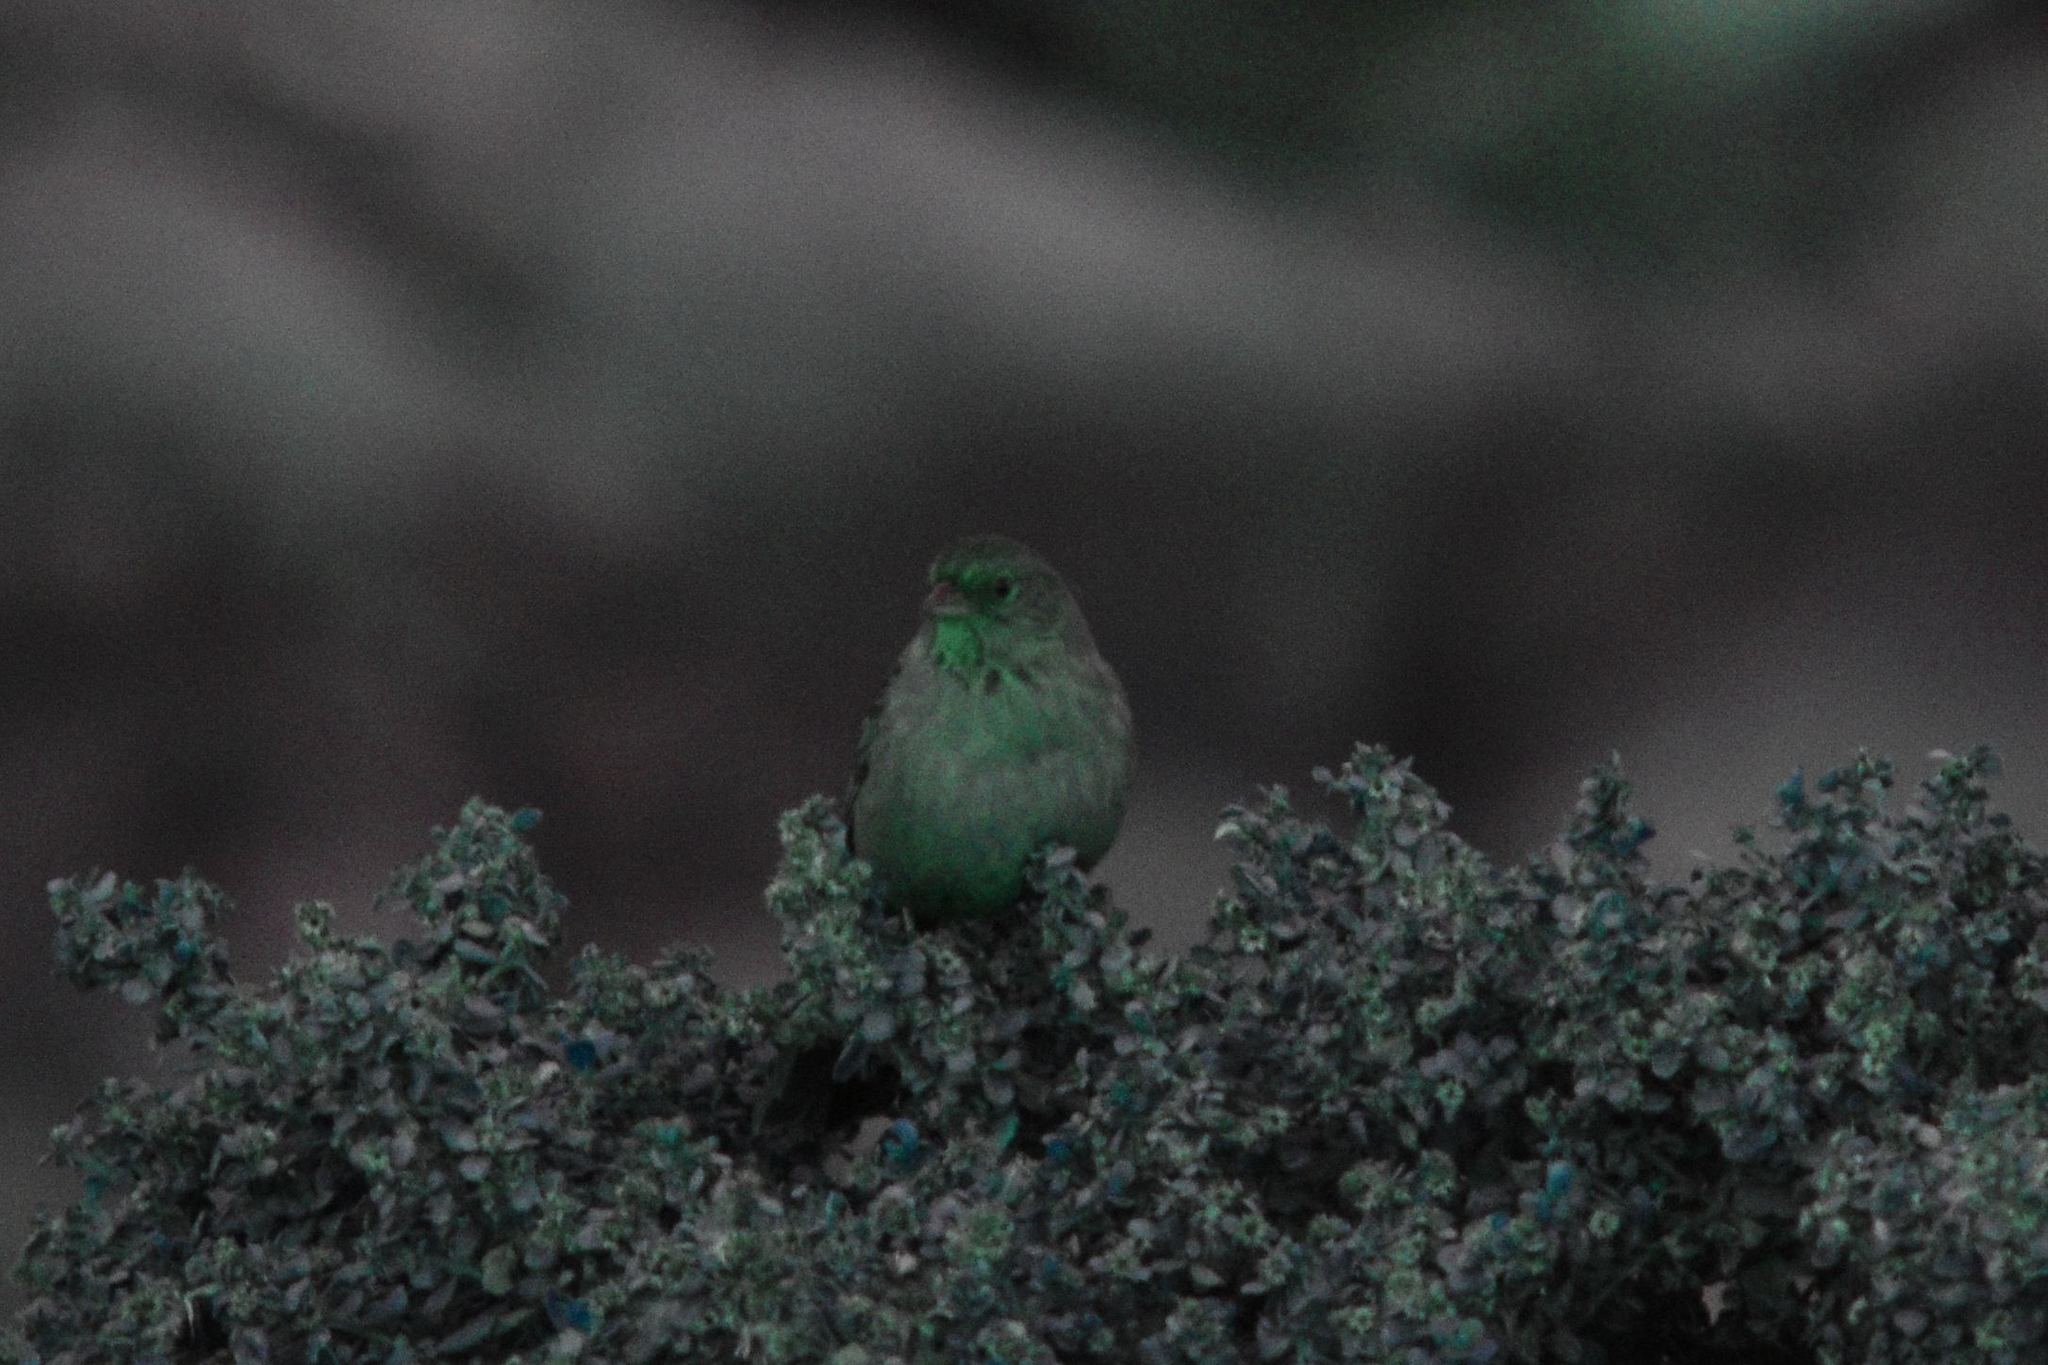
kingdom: Animalia
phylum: Chordata
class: Aves
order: Passeriformes
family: Passerellidae
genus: Melozone
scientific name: Melozone crissalis
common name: California towhee
